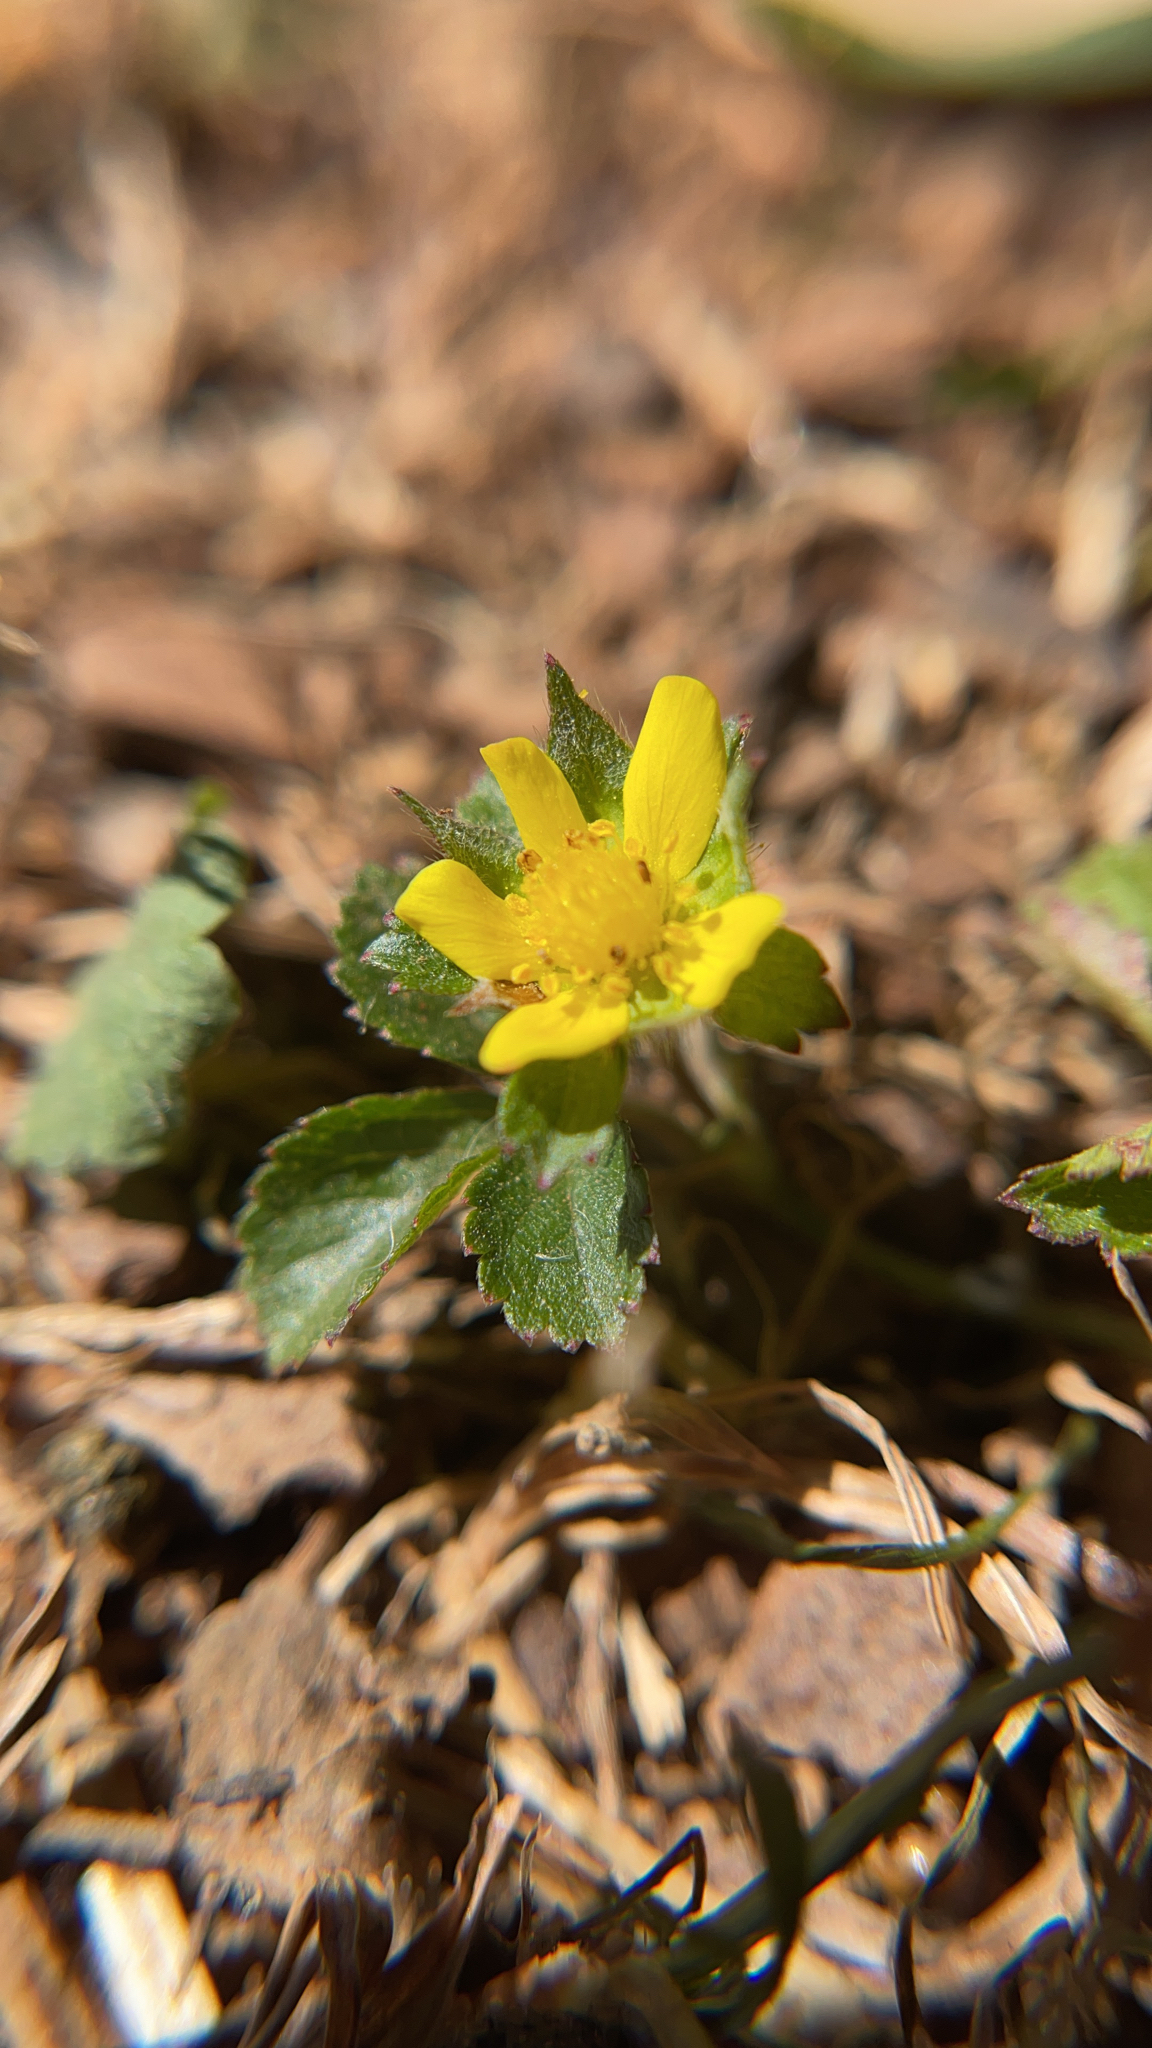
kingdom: Plantae
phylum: Tracheophyta
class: Magnoliopsida
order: Rosales
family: Rosaceae
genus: Potentilla
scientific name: Potentilla indica
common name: Yellow-flowered strawberry
